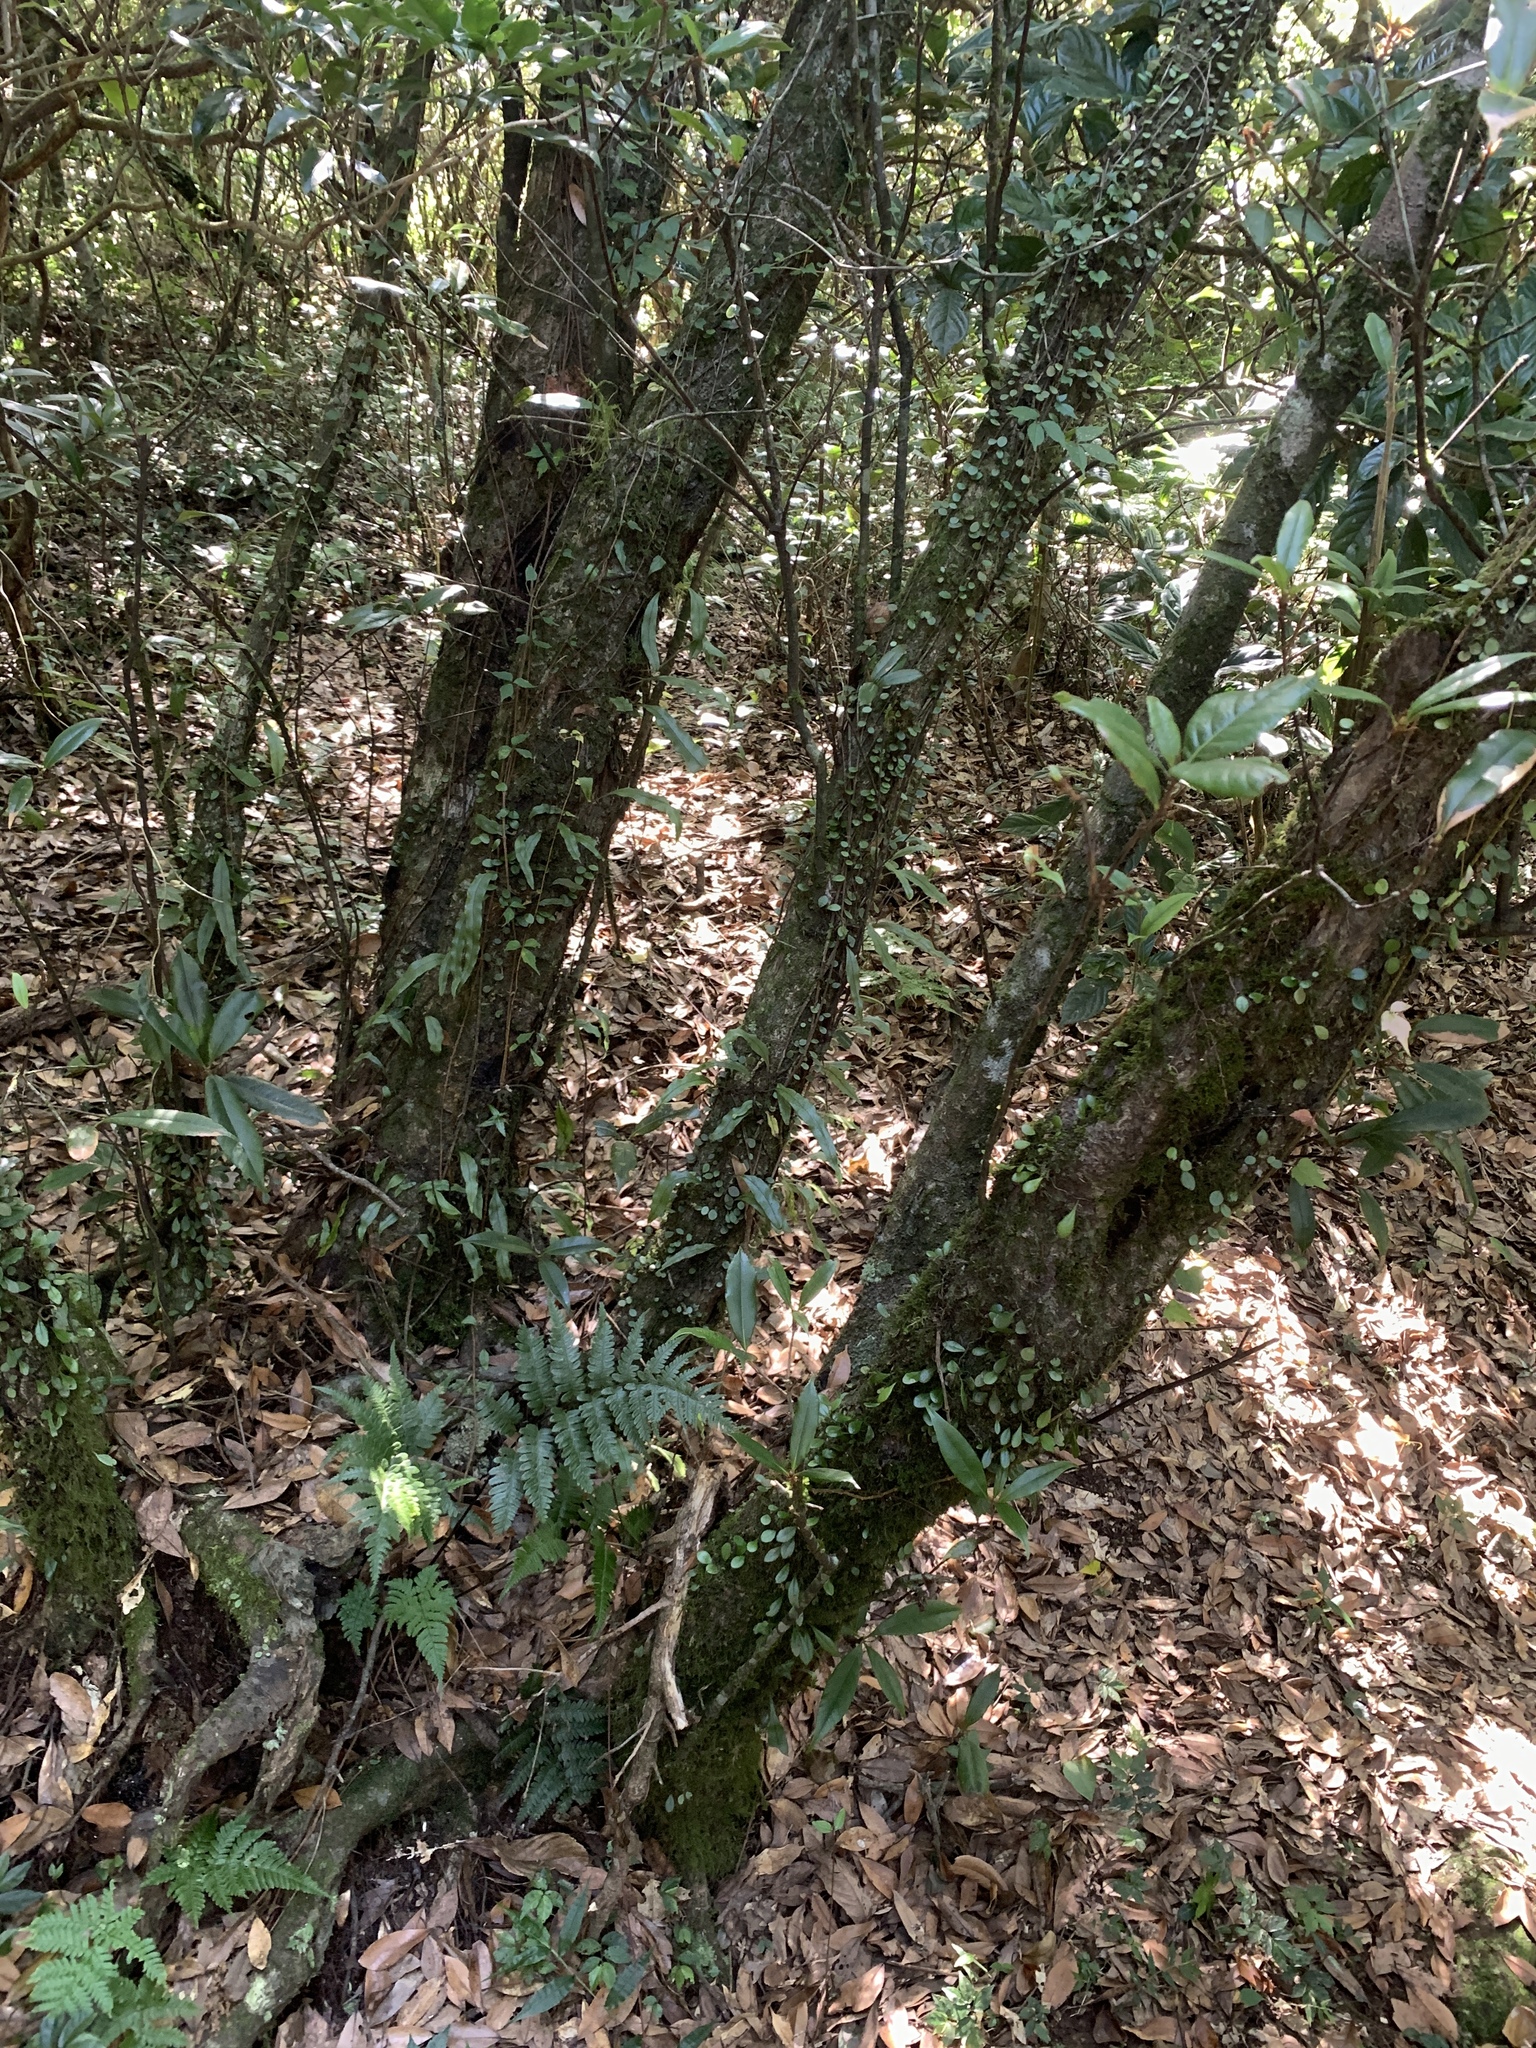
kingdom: Plantae
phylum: Tracheophyta
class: Magnoliopsida
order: Fagales
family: Fagaceae
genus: Quercus
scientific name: Quercus sessilifolia
